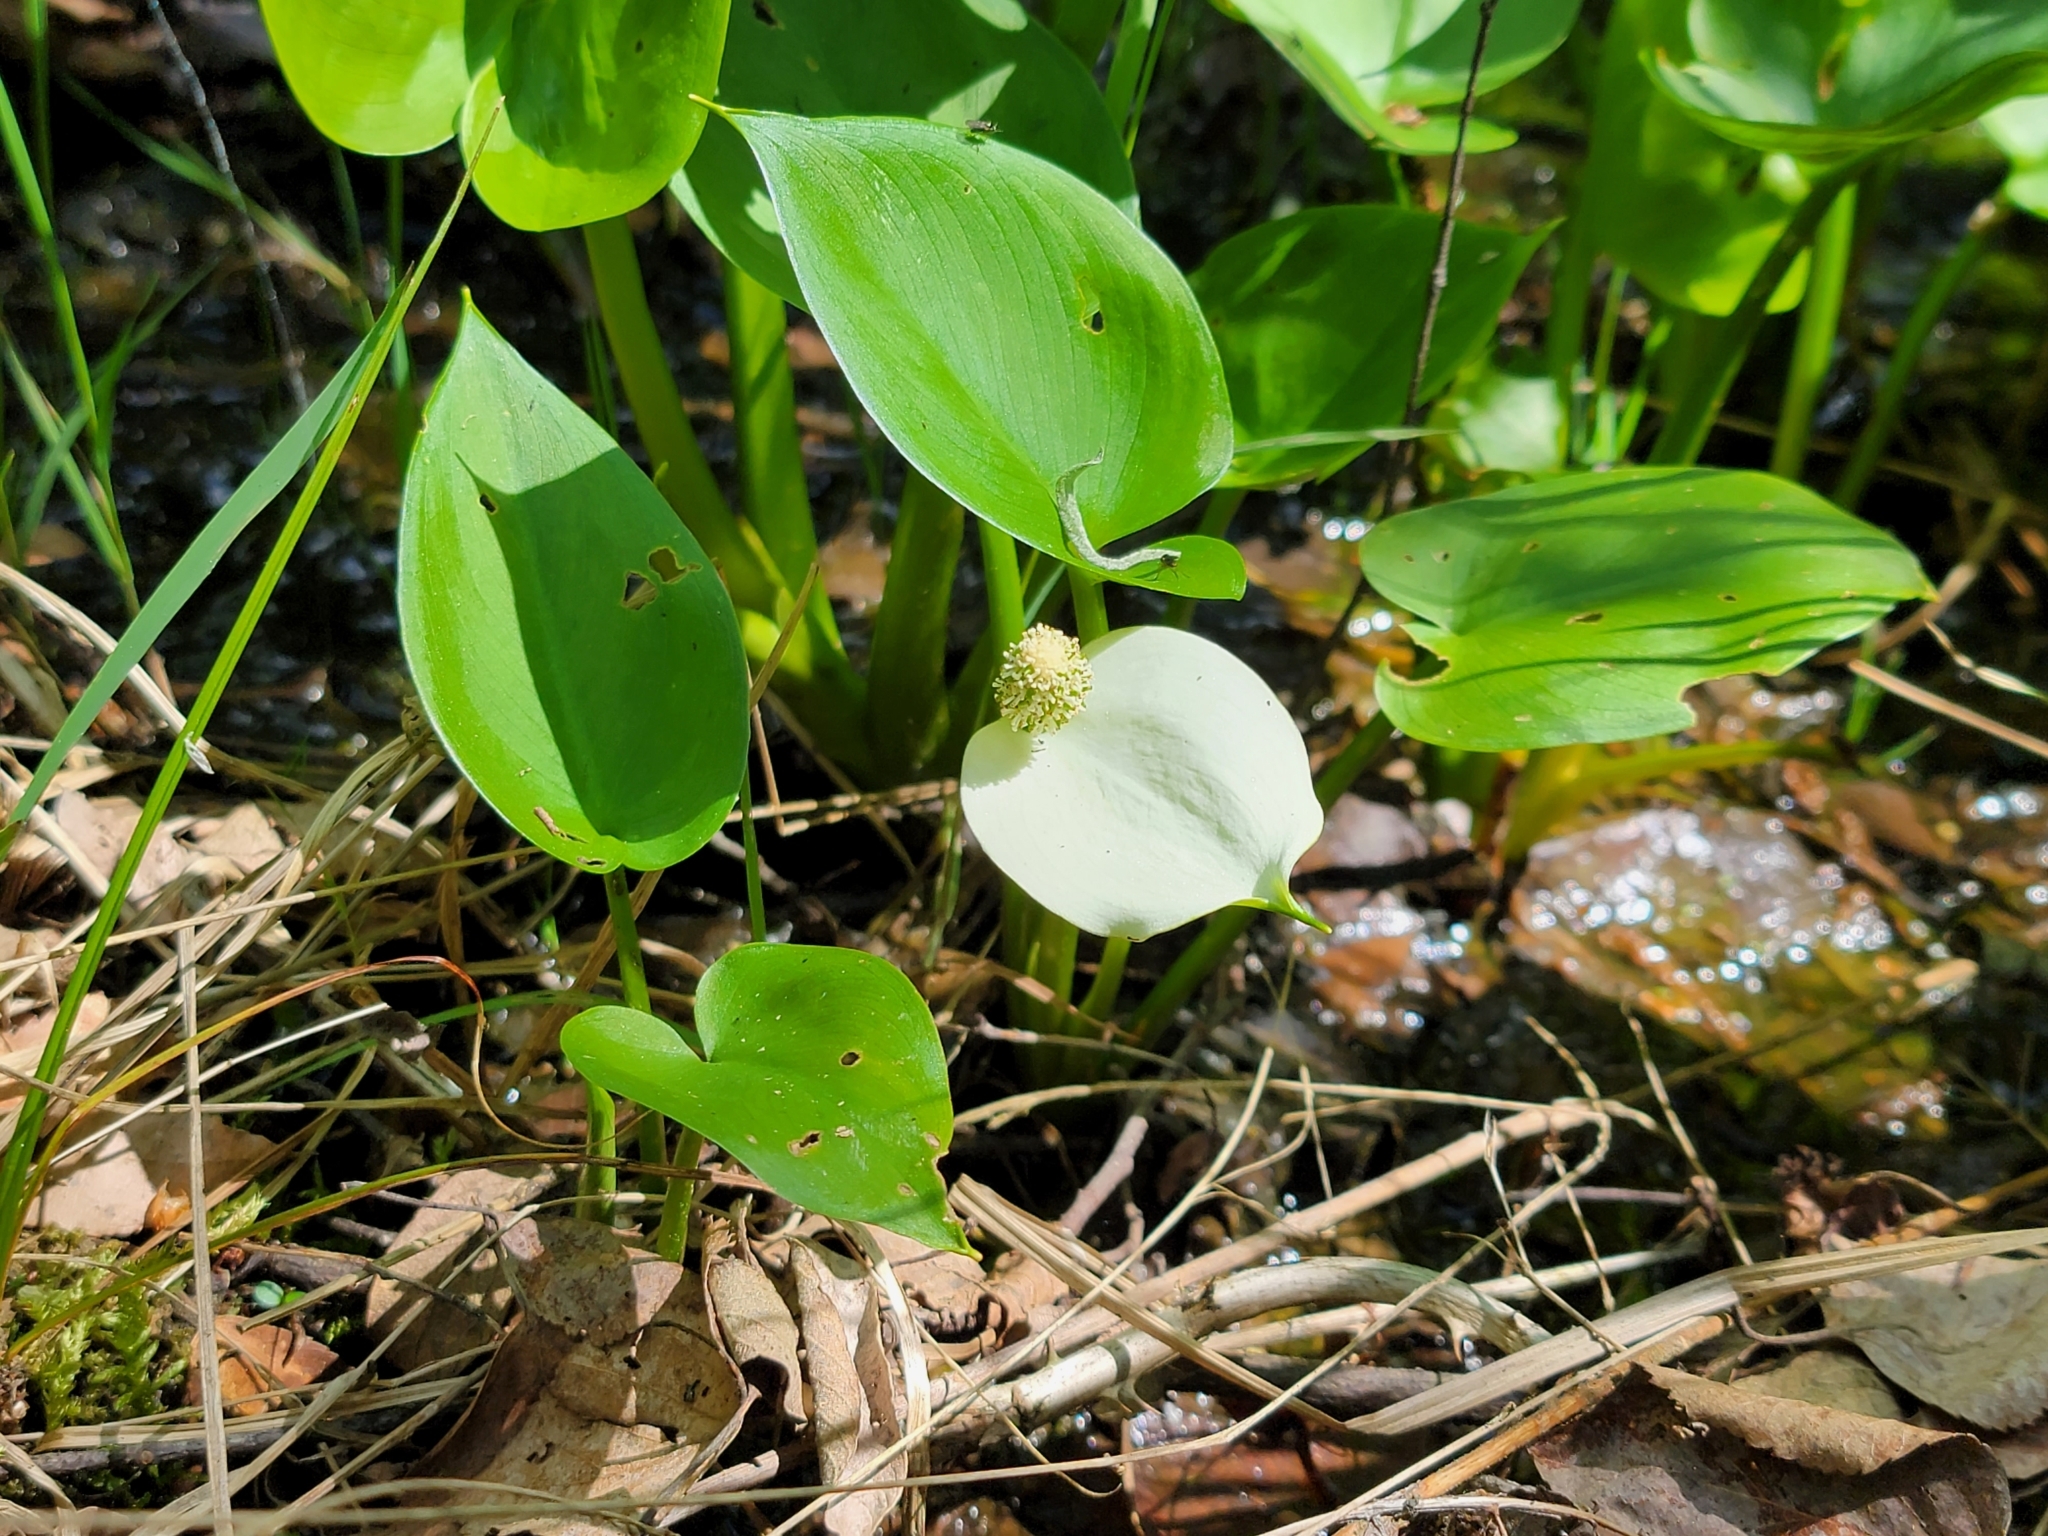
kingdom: Plantae
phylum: Tracheophyta
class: Liliopsida
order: Alismatales
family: Araceae
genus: Calla
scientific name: Calla palustris
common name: Bog arum
